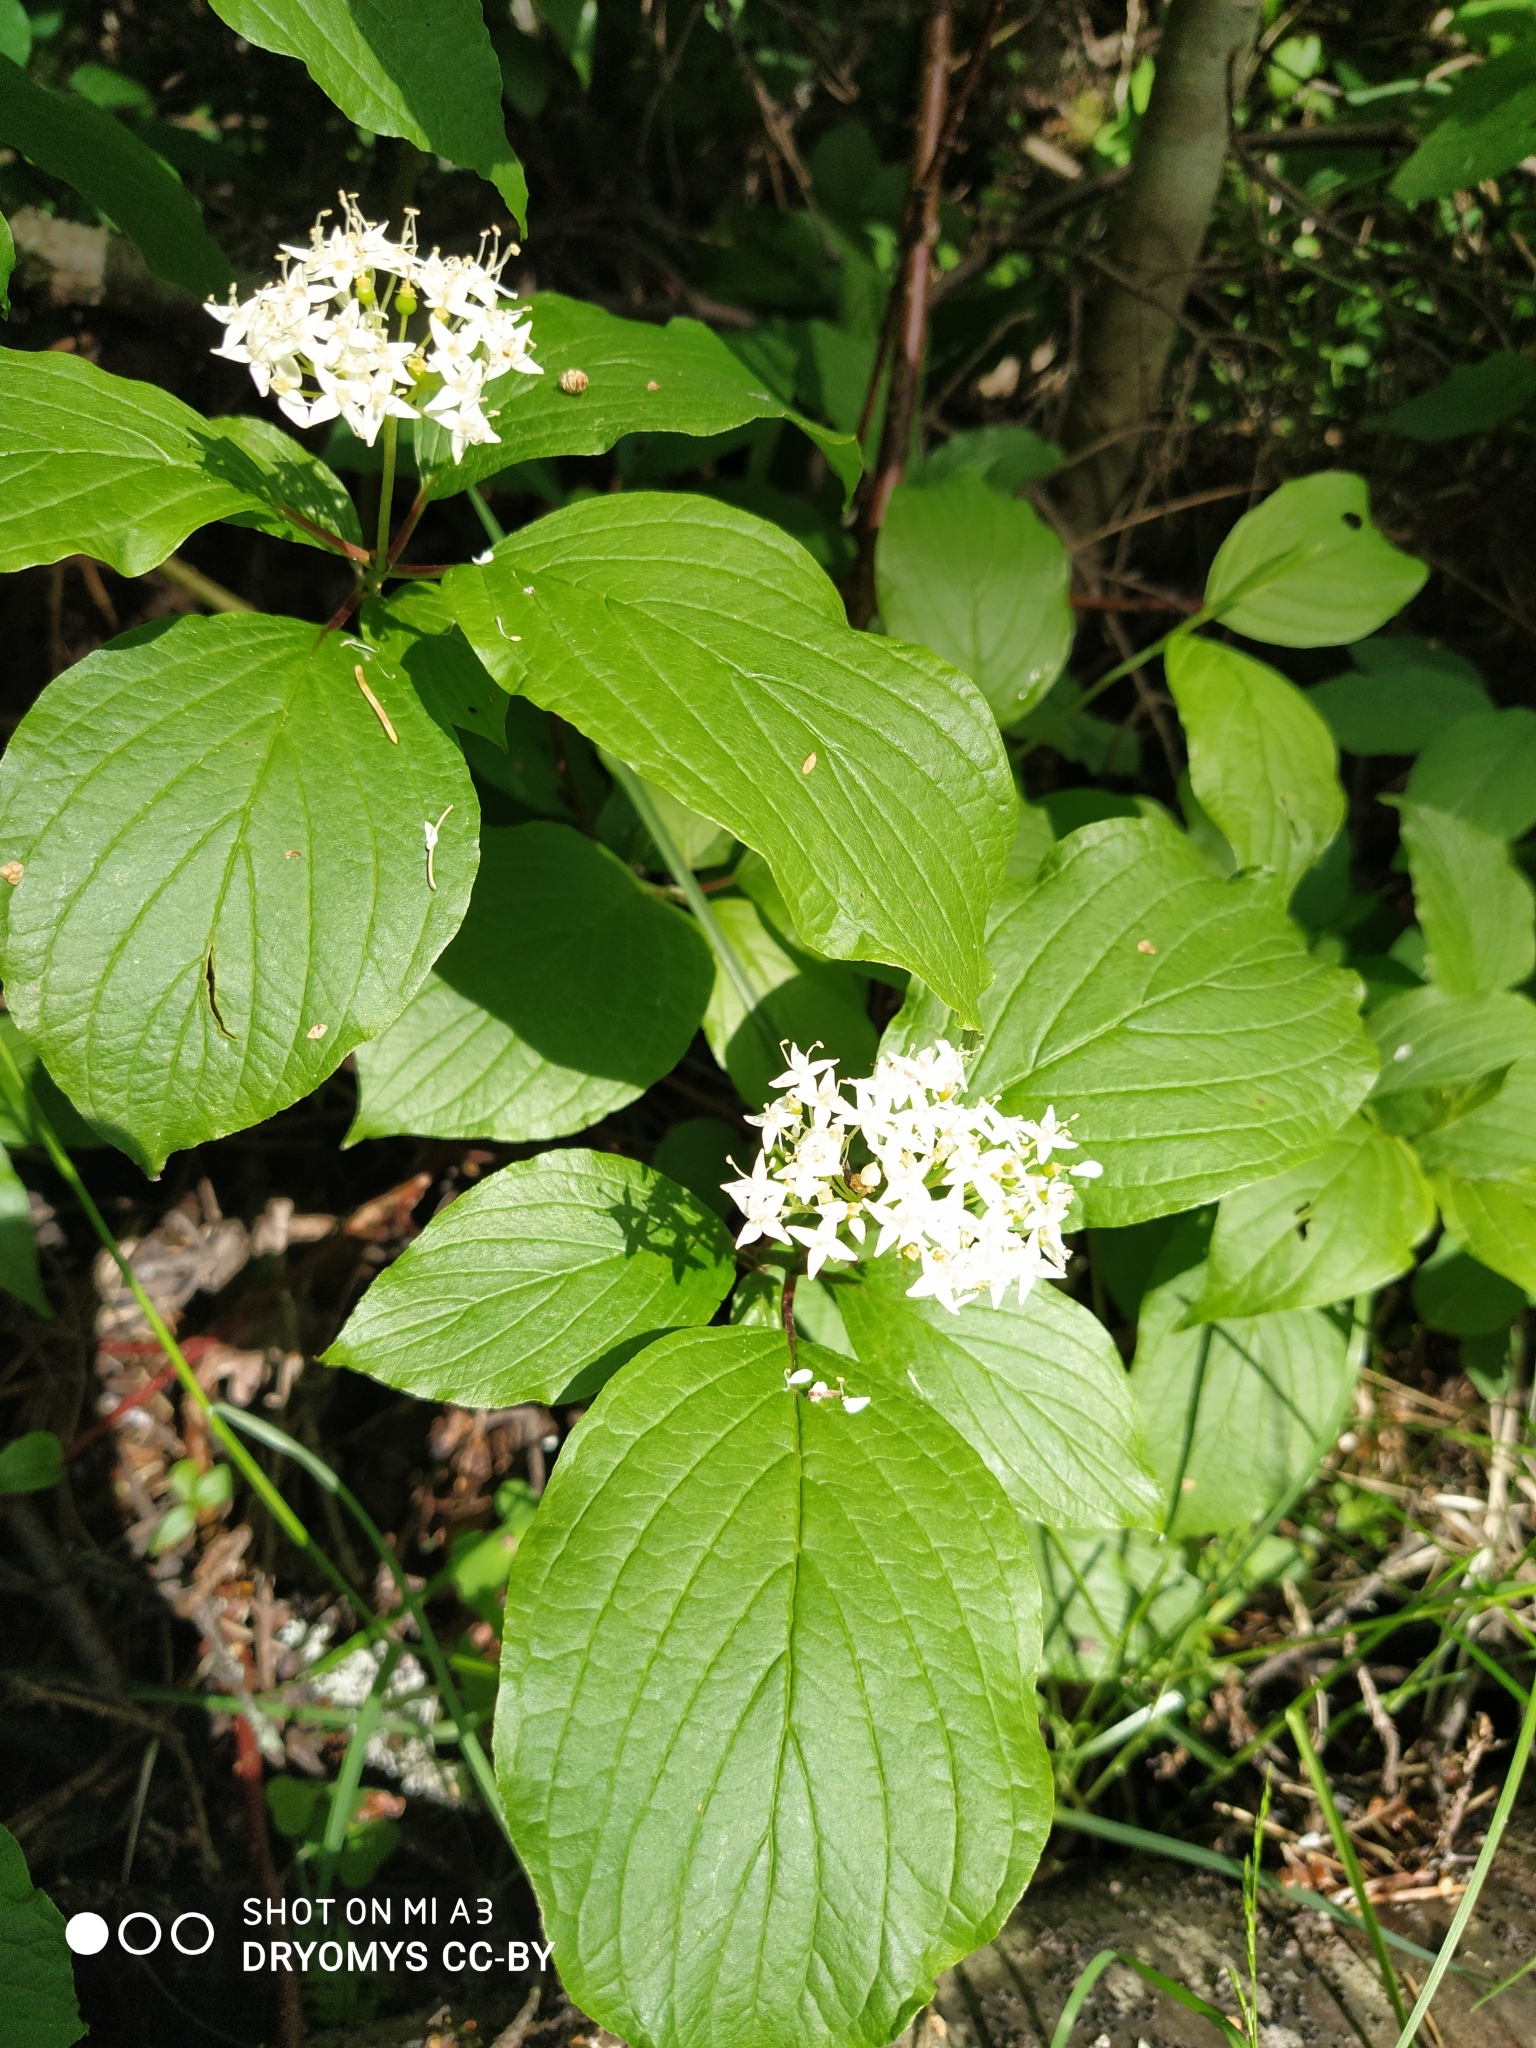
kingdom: Plantae
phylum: Tracheophyta
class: Magnoliopsida
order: Cornales
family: Cornaceae
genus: Cornus
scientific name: Cornus alba
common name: White dogwood
